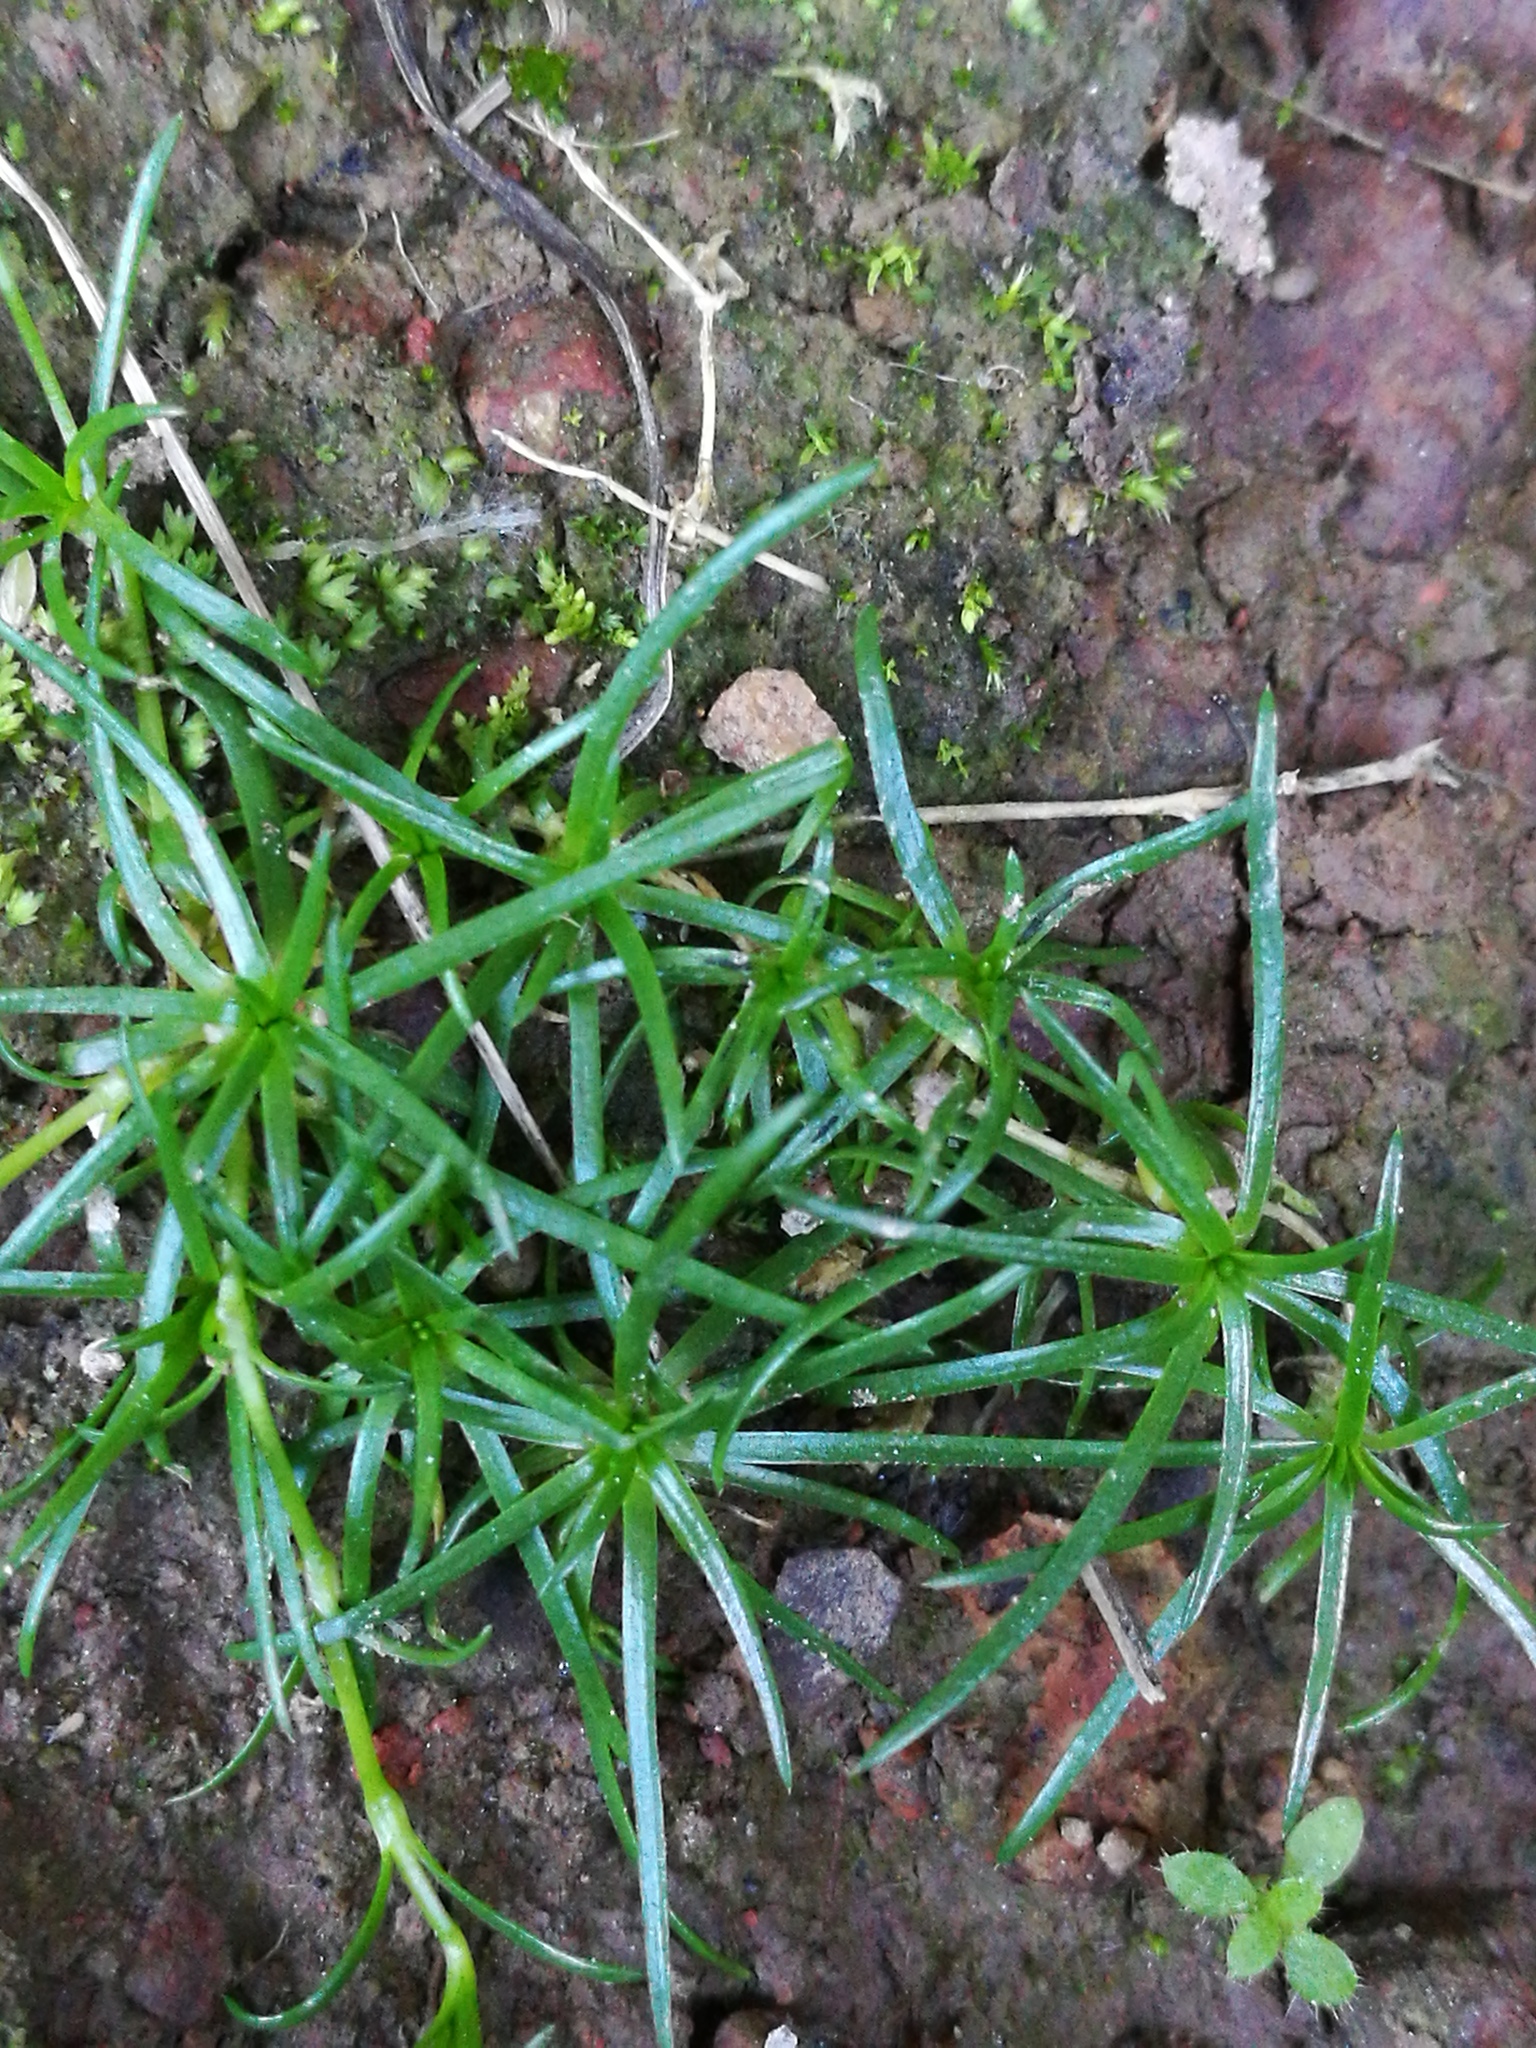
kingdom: Plantae
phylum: Tracheophyta
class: Magnoliopsida
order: Caryophyllales
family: Caryophyllaceae
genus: Sagina
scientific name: Sagina procumbens
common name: Procumbent pearlwort
